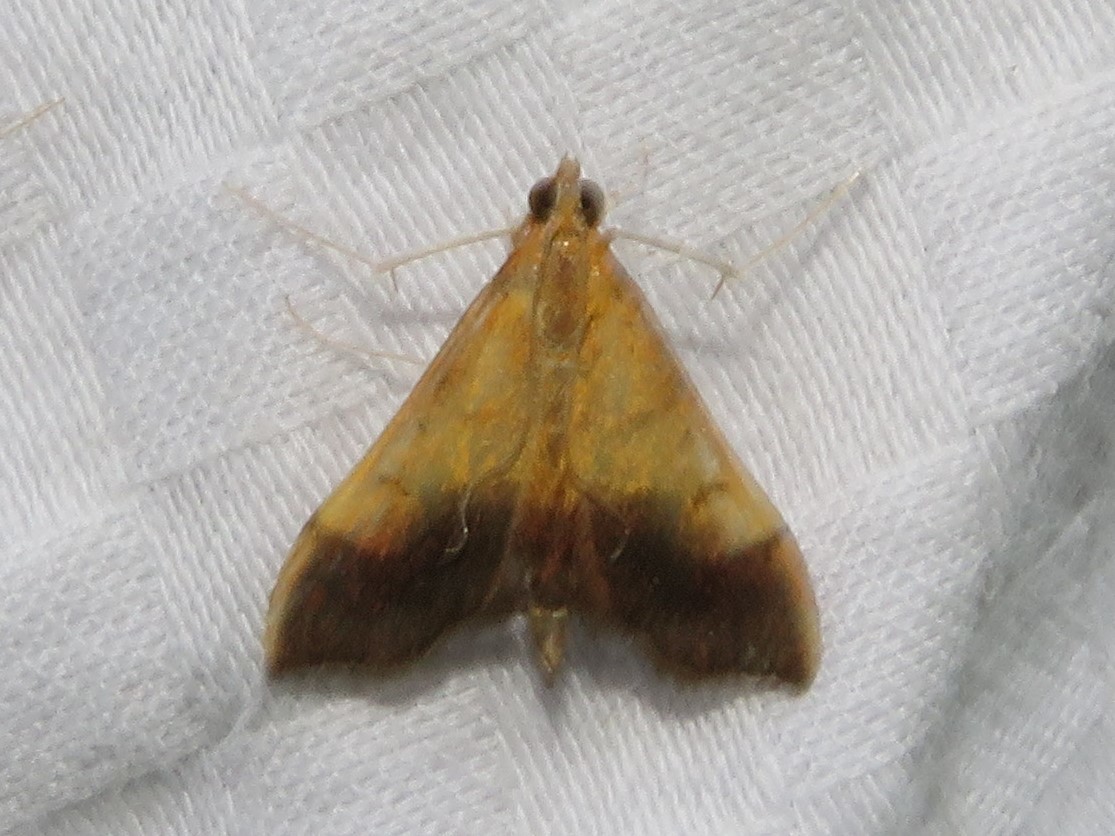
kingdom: Animalia
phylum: Arthropoda
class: Insecta
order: Lepidoptera
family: Crambidae
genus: Pyrausta
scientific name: Pyrausta bicoloralis
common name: Bicolored pyrausta moth
